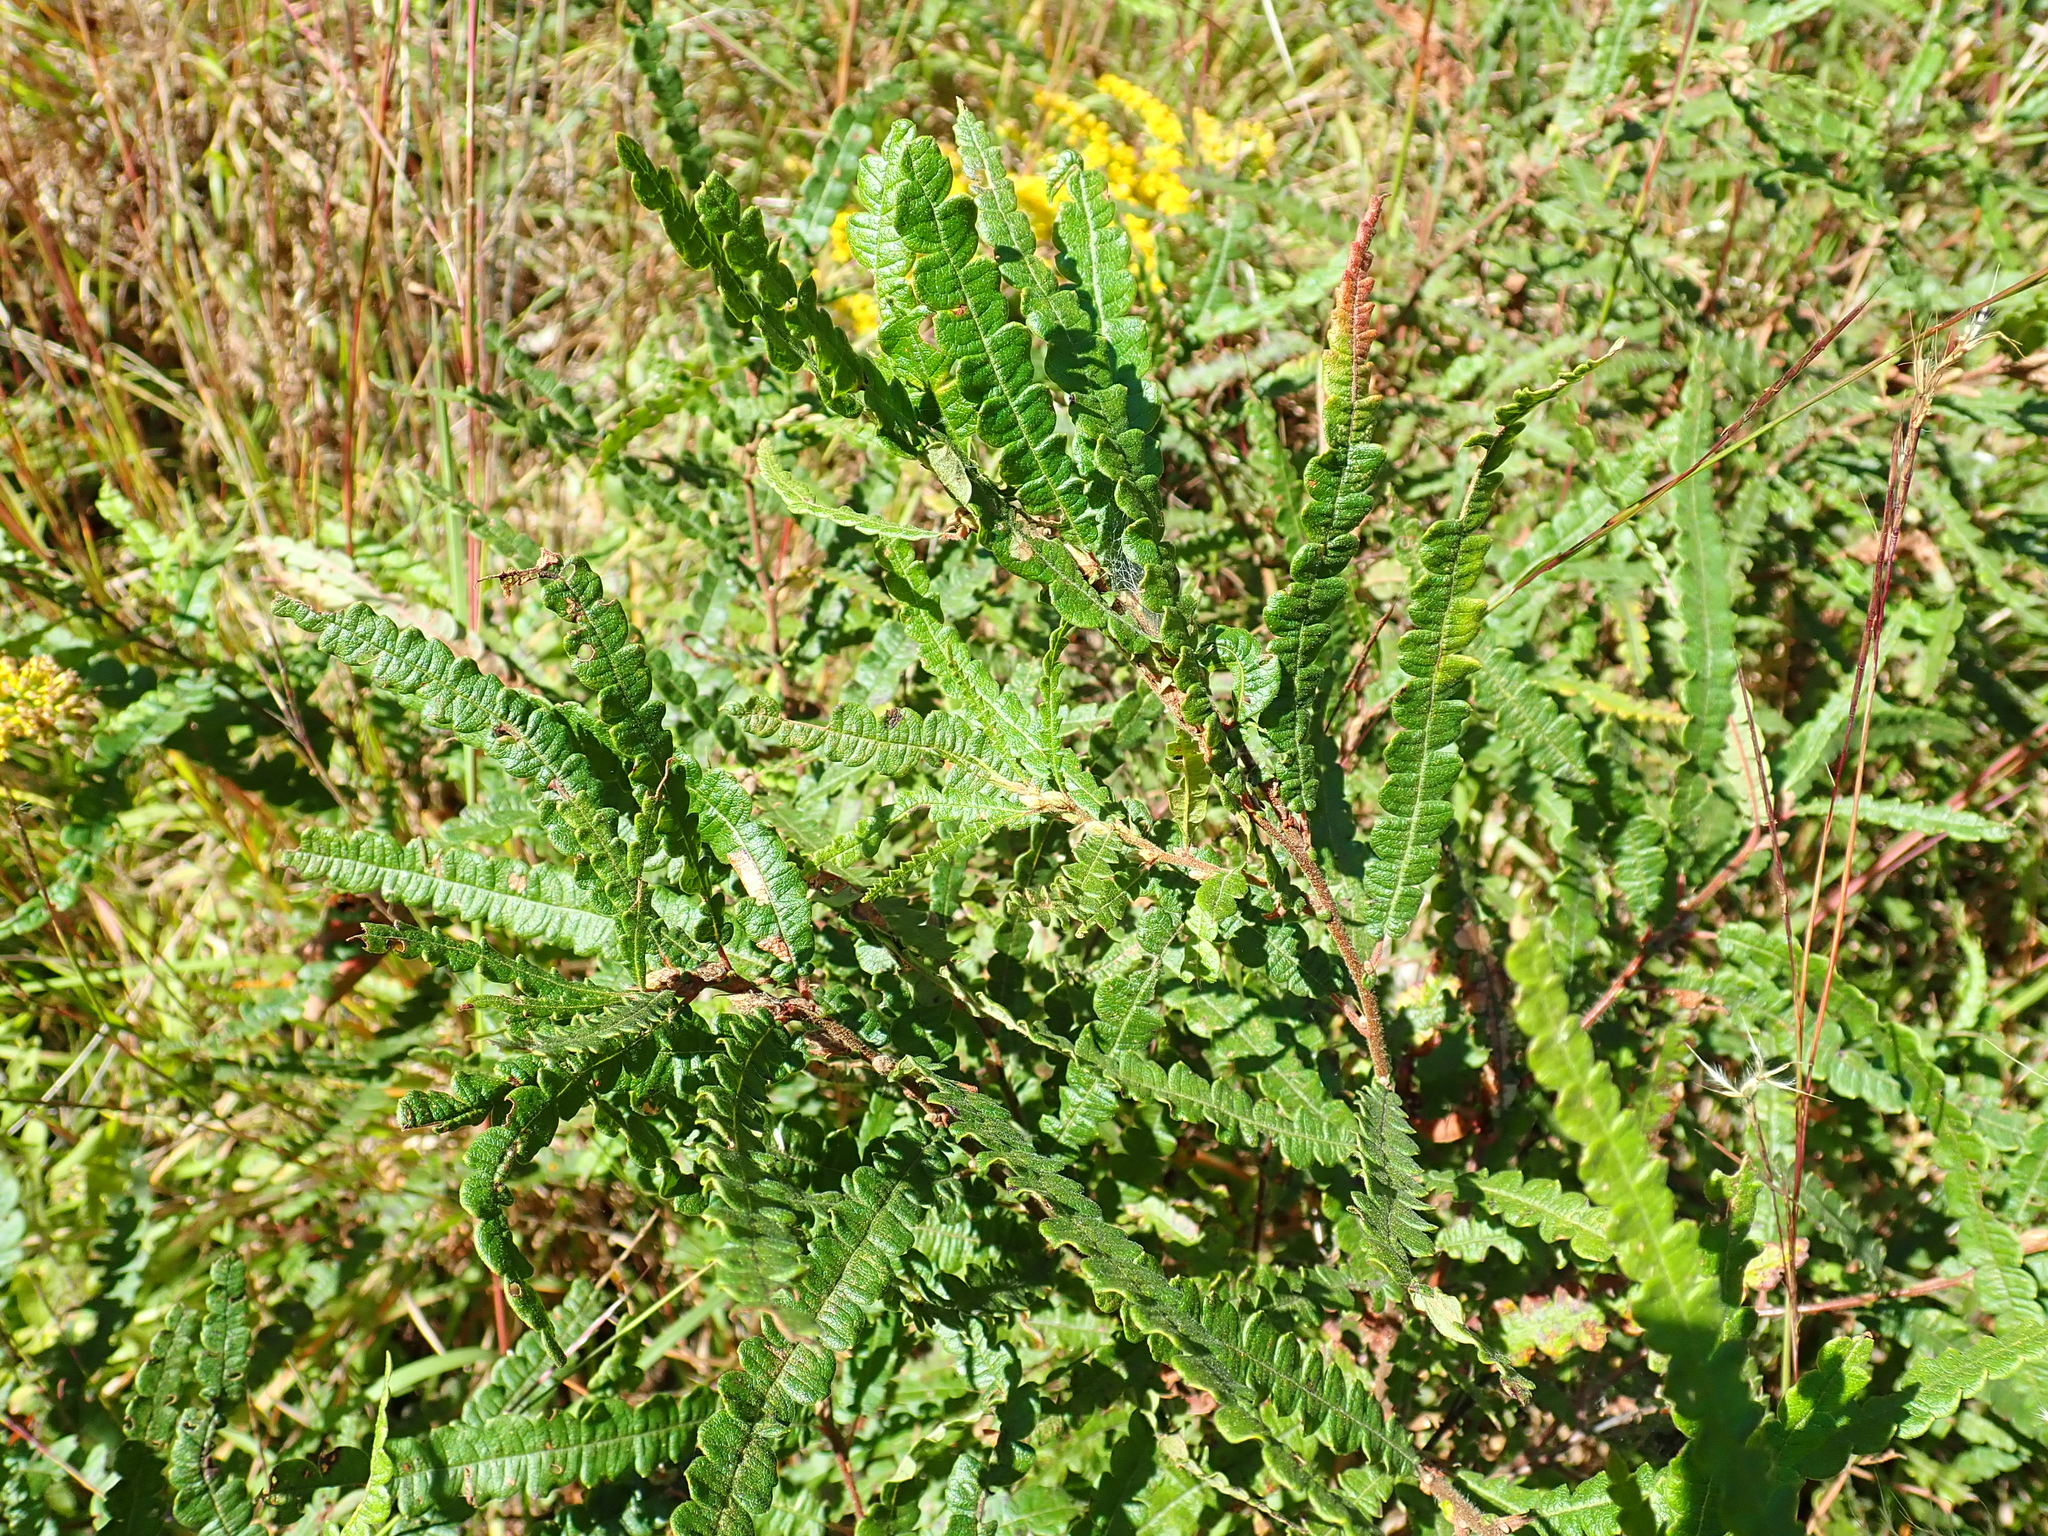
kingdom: Plantae
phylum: Tracheophyta
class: Magnoliopsida
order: Fagales
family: Myricaceae
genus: Comptonia
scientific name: Comptonia peregrina
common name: Sweet-fern
